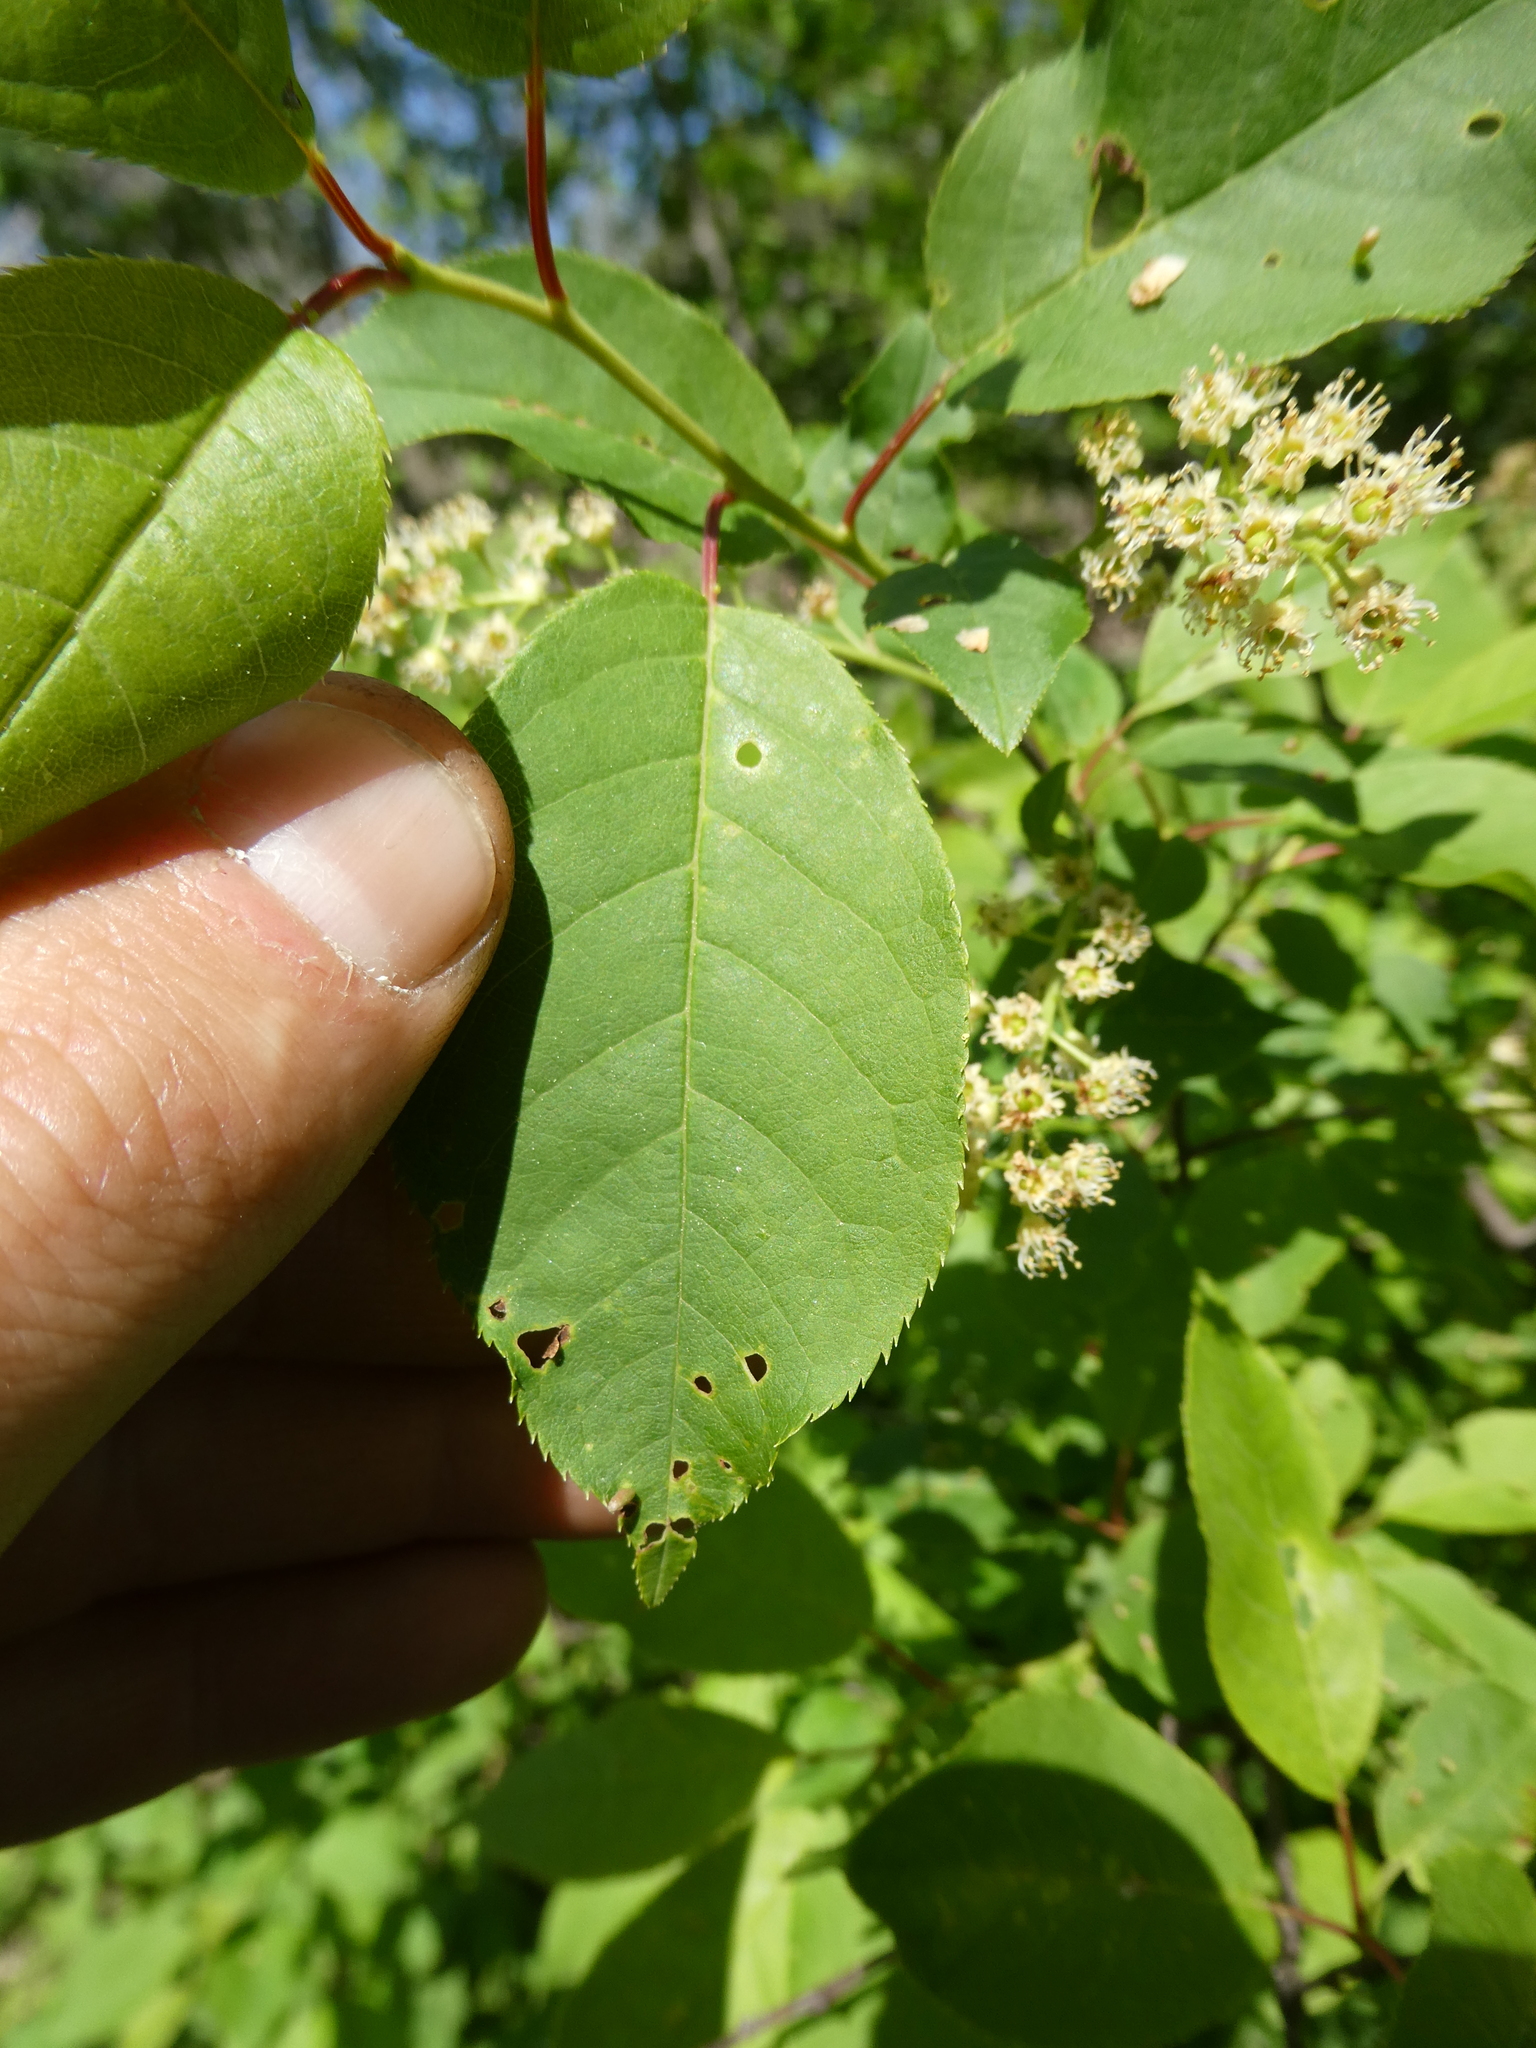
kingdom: Plantae
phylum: Tracheophyta
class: Magnoliopsida
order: Rosales
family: Rosaceae
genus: Prunus
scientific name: Prunus virginiana
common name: Chokecherry
